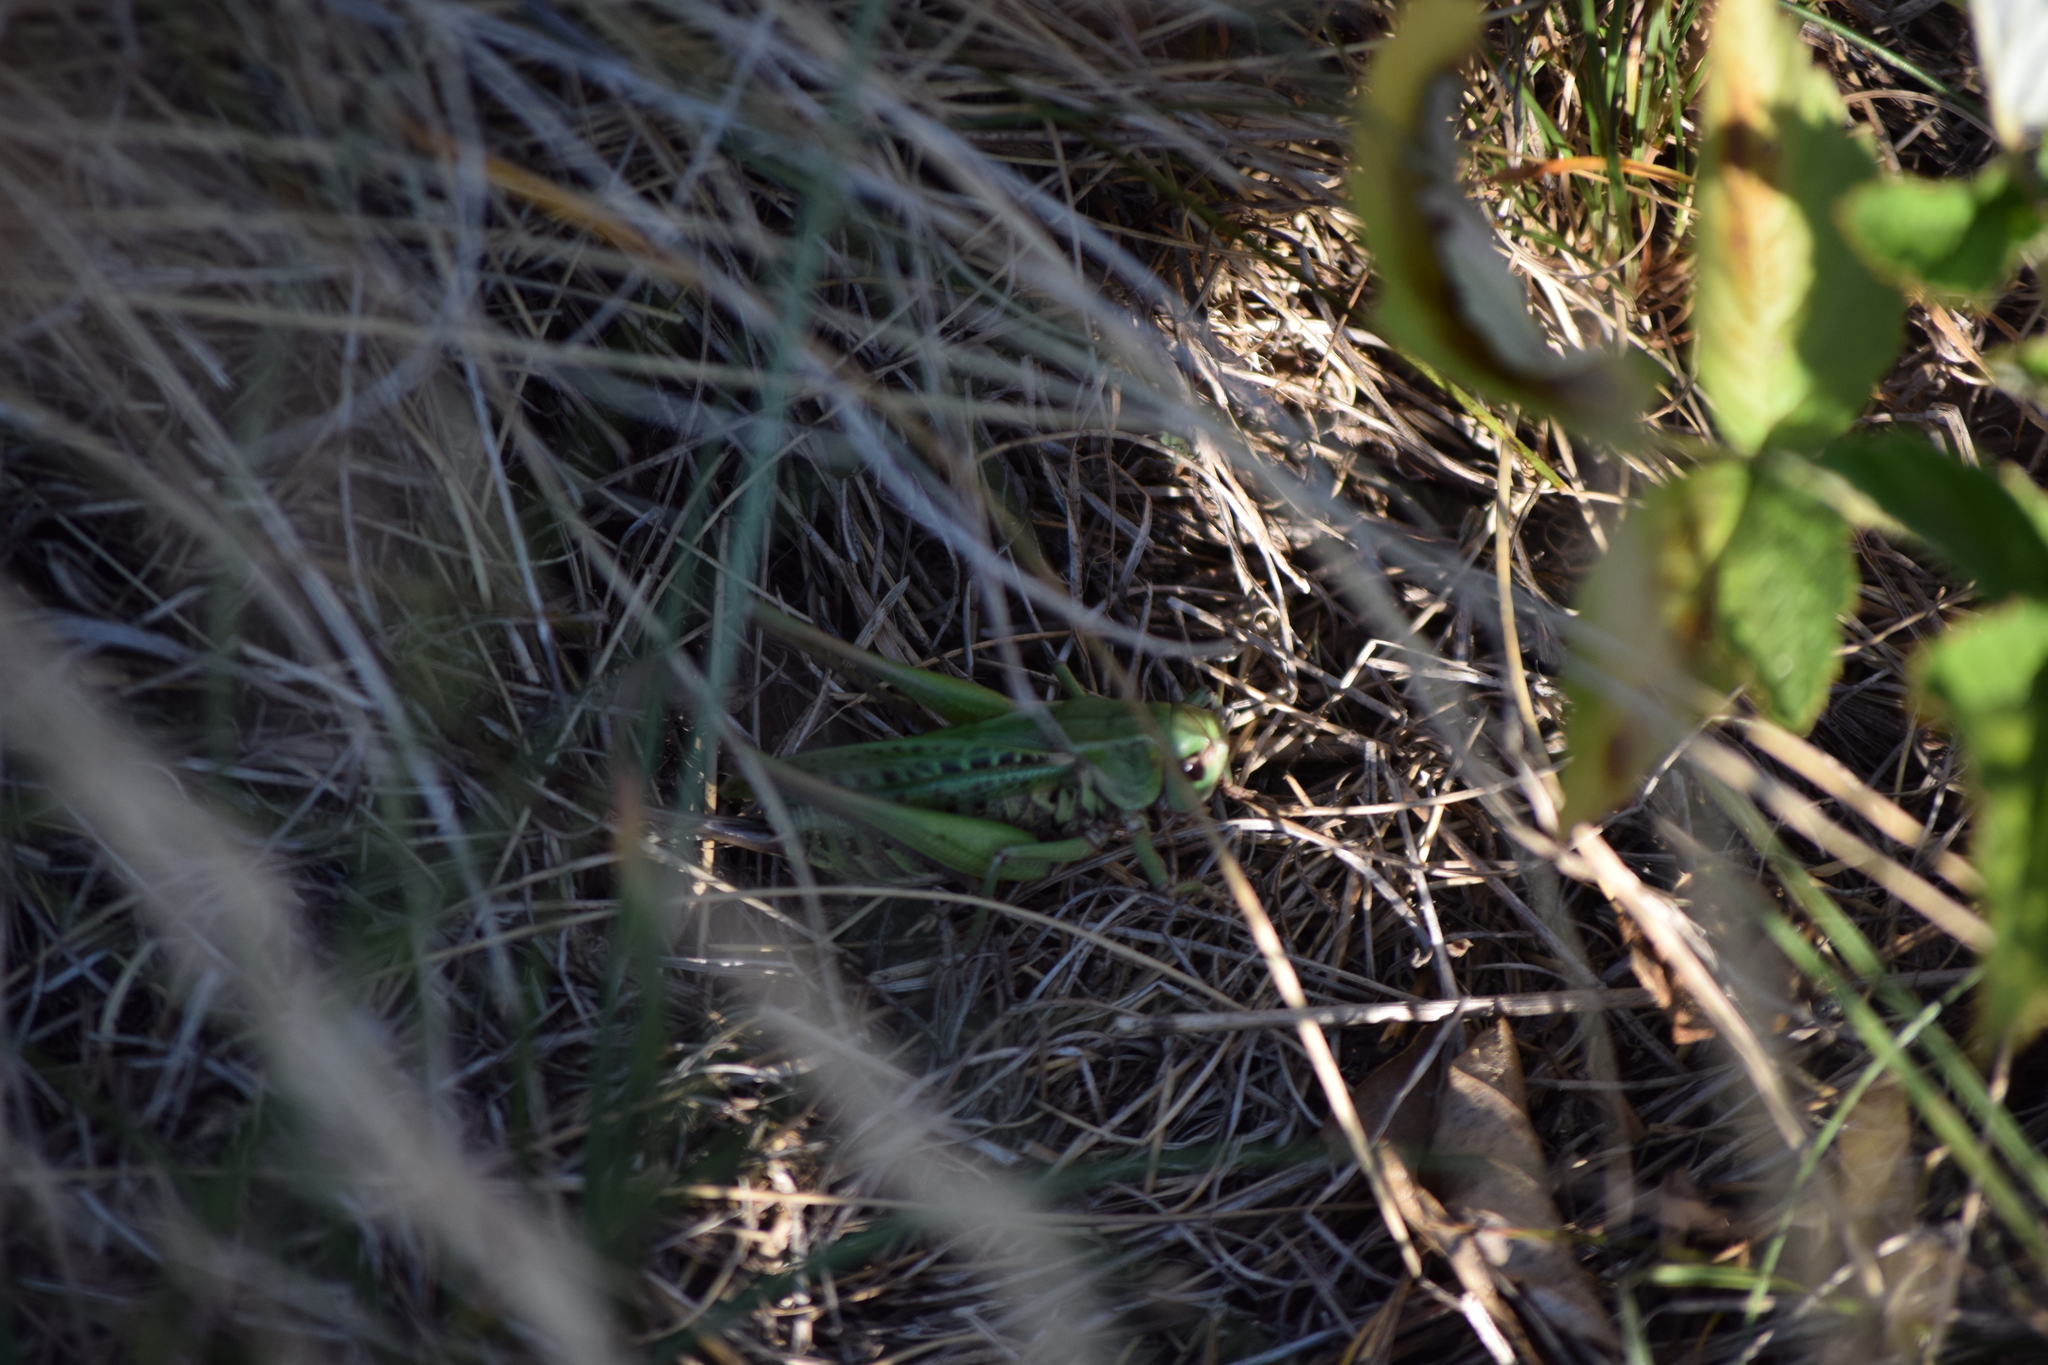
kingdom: Animalia
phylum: Arthropoda
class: Insecta
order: Orthoptera
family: Tettigoniidae
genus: Decticus
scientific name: Decticus verrucivorus
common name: Wart-biter
